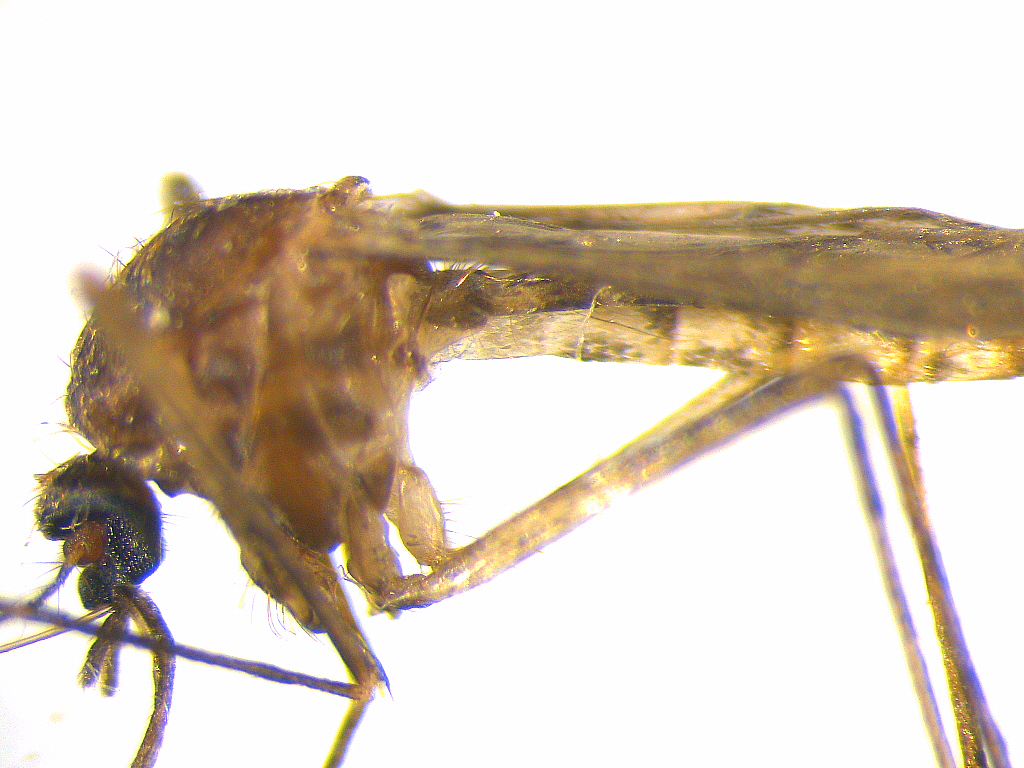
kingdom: Animalia
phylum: Arthropoda
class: Insecta
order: Diptera
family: Culicidae
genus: Culex
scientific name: Culex pervigilans
